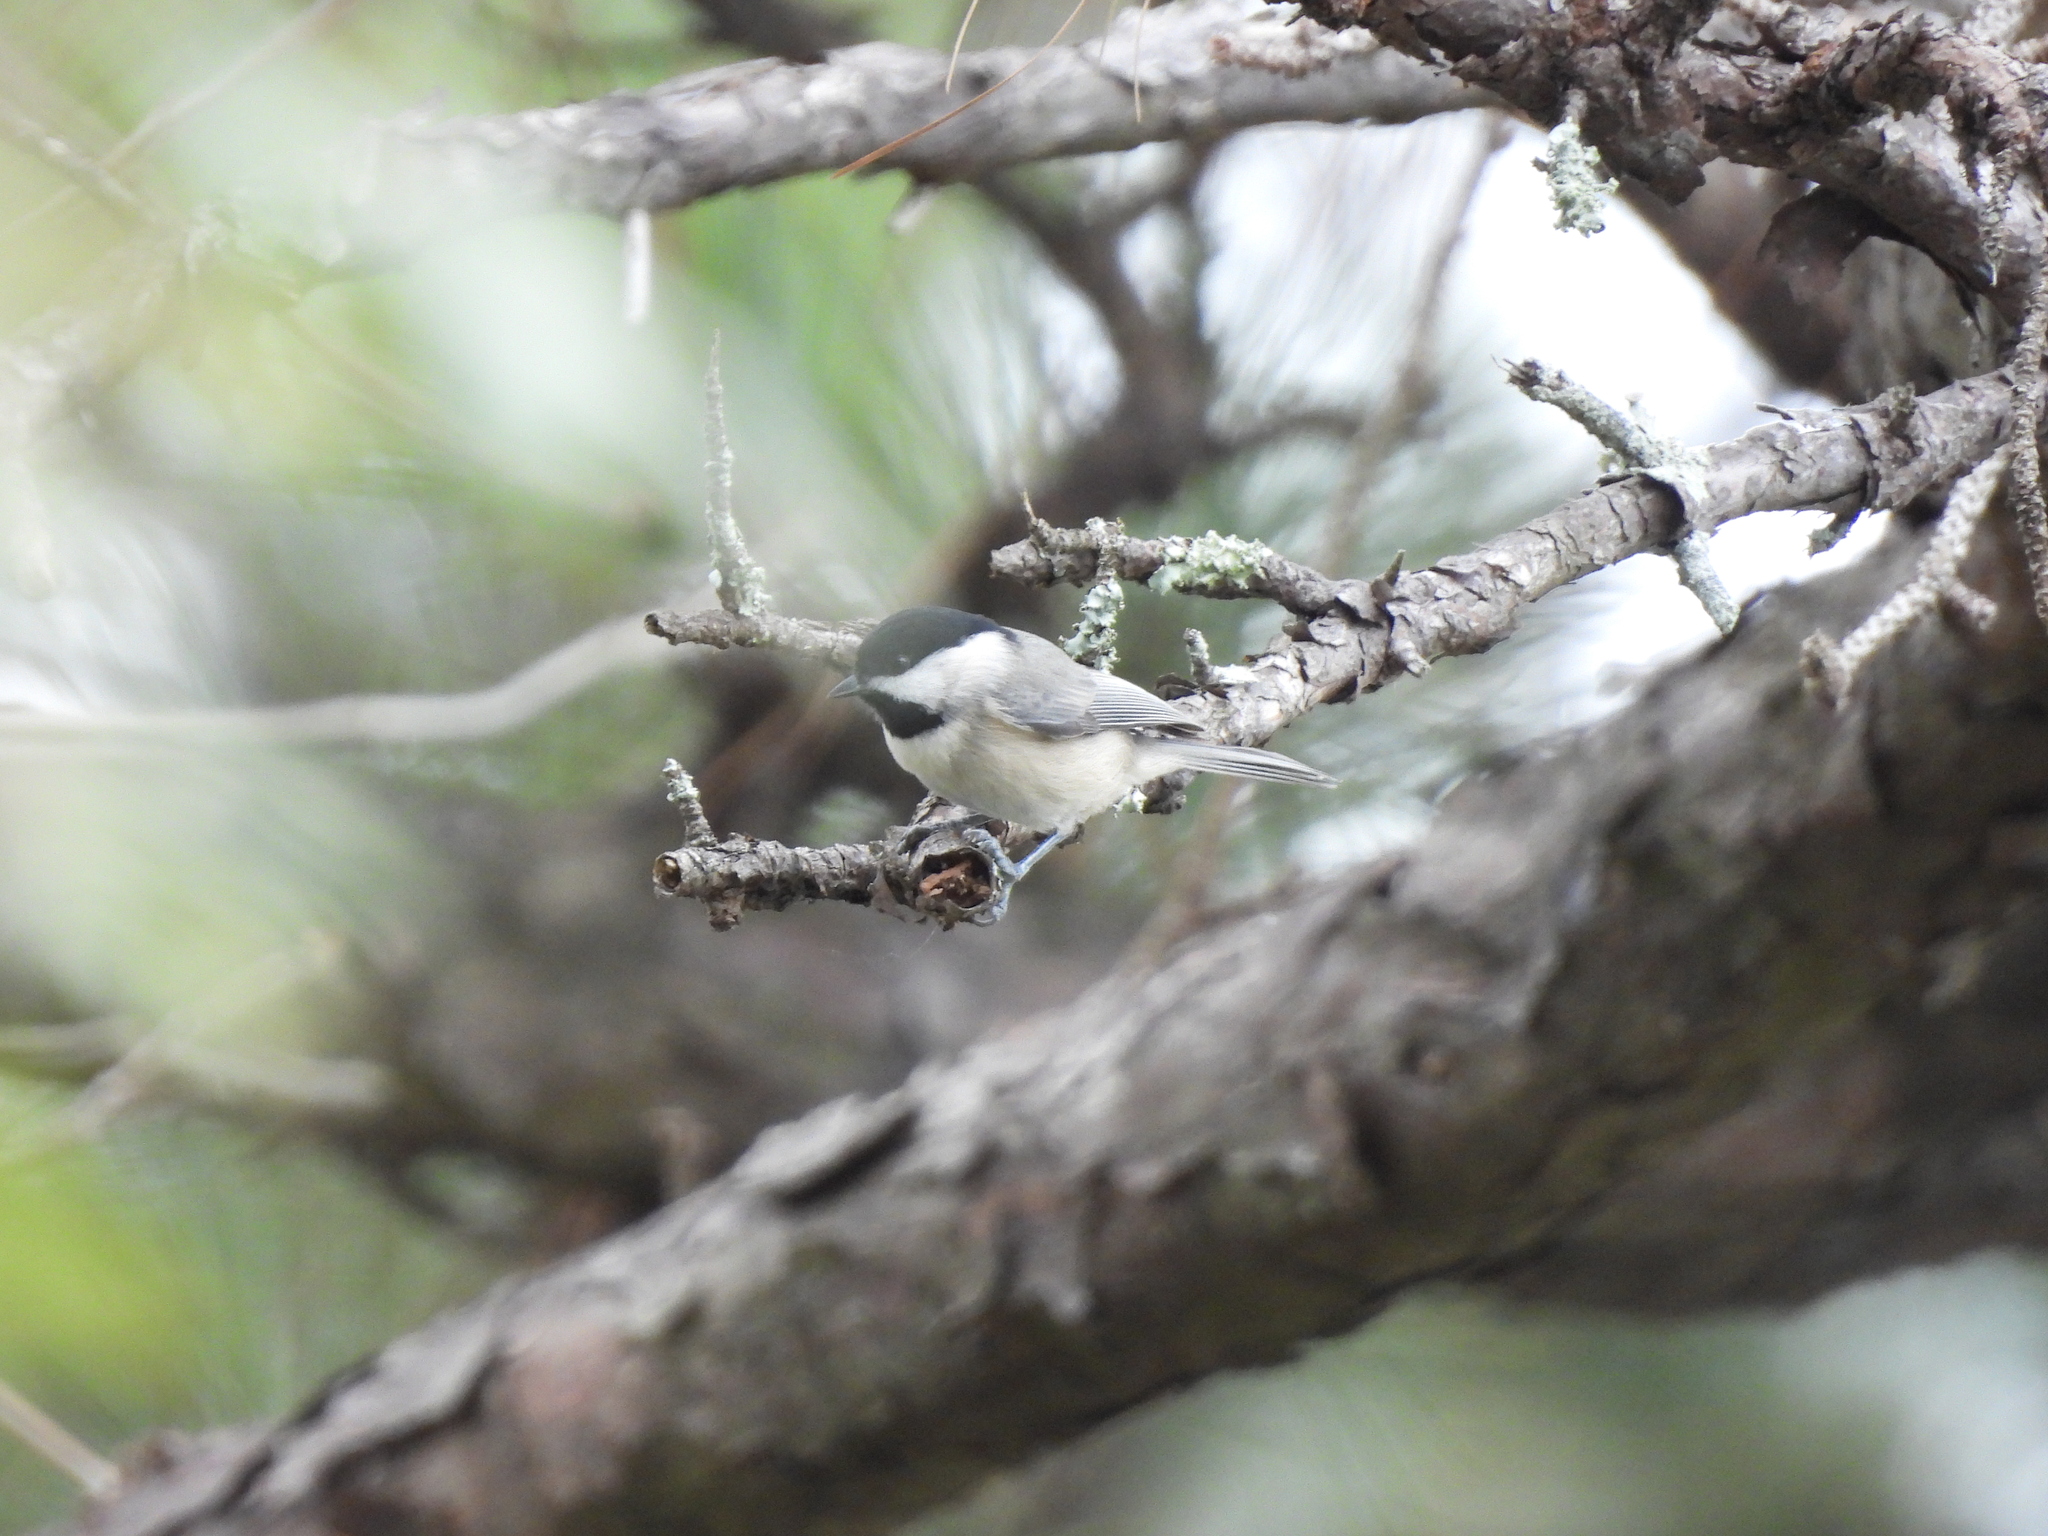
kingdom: Animalia
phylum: Chordata
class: Aves
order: Passeriformes
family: Paridae
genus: Poecile
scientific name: Poecile carolinensis
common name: Carolina chickadee
